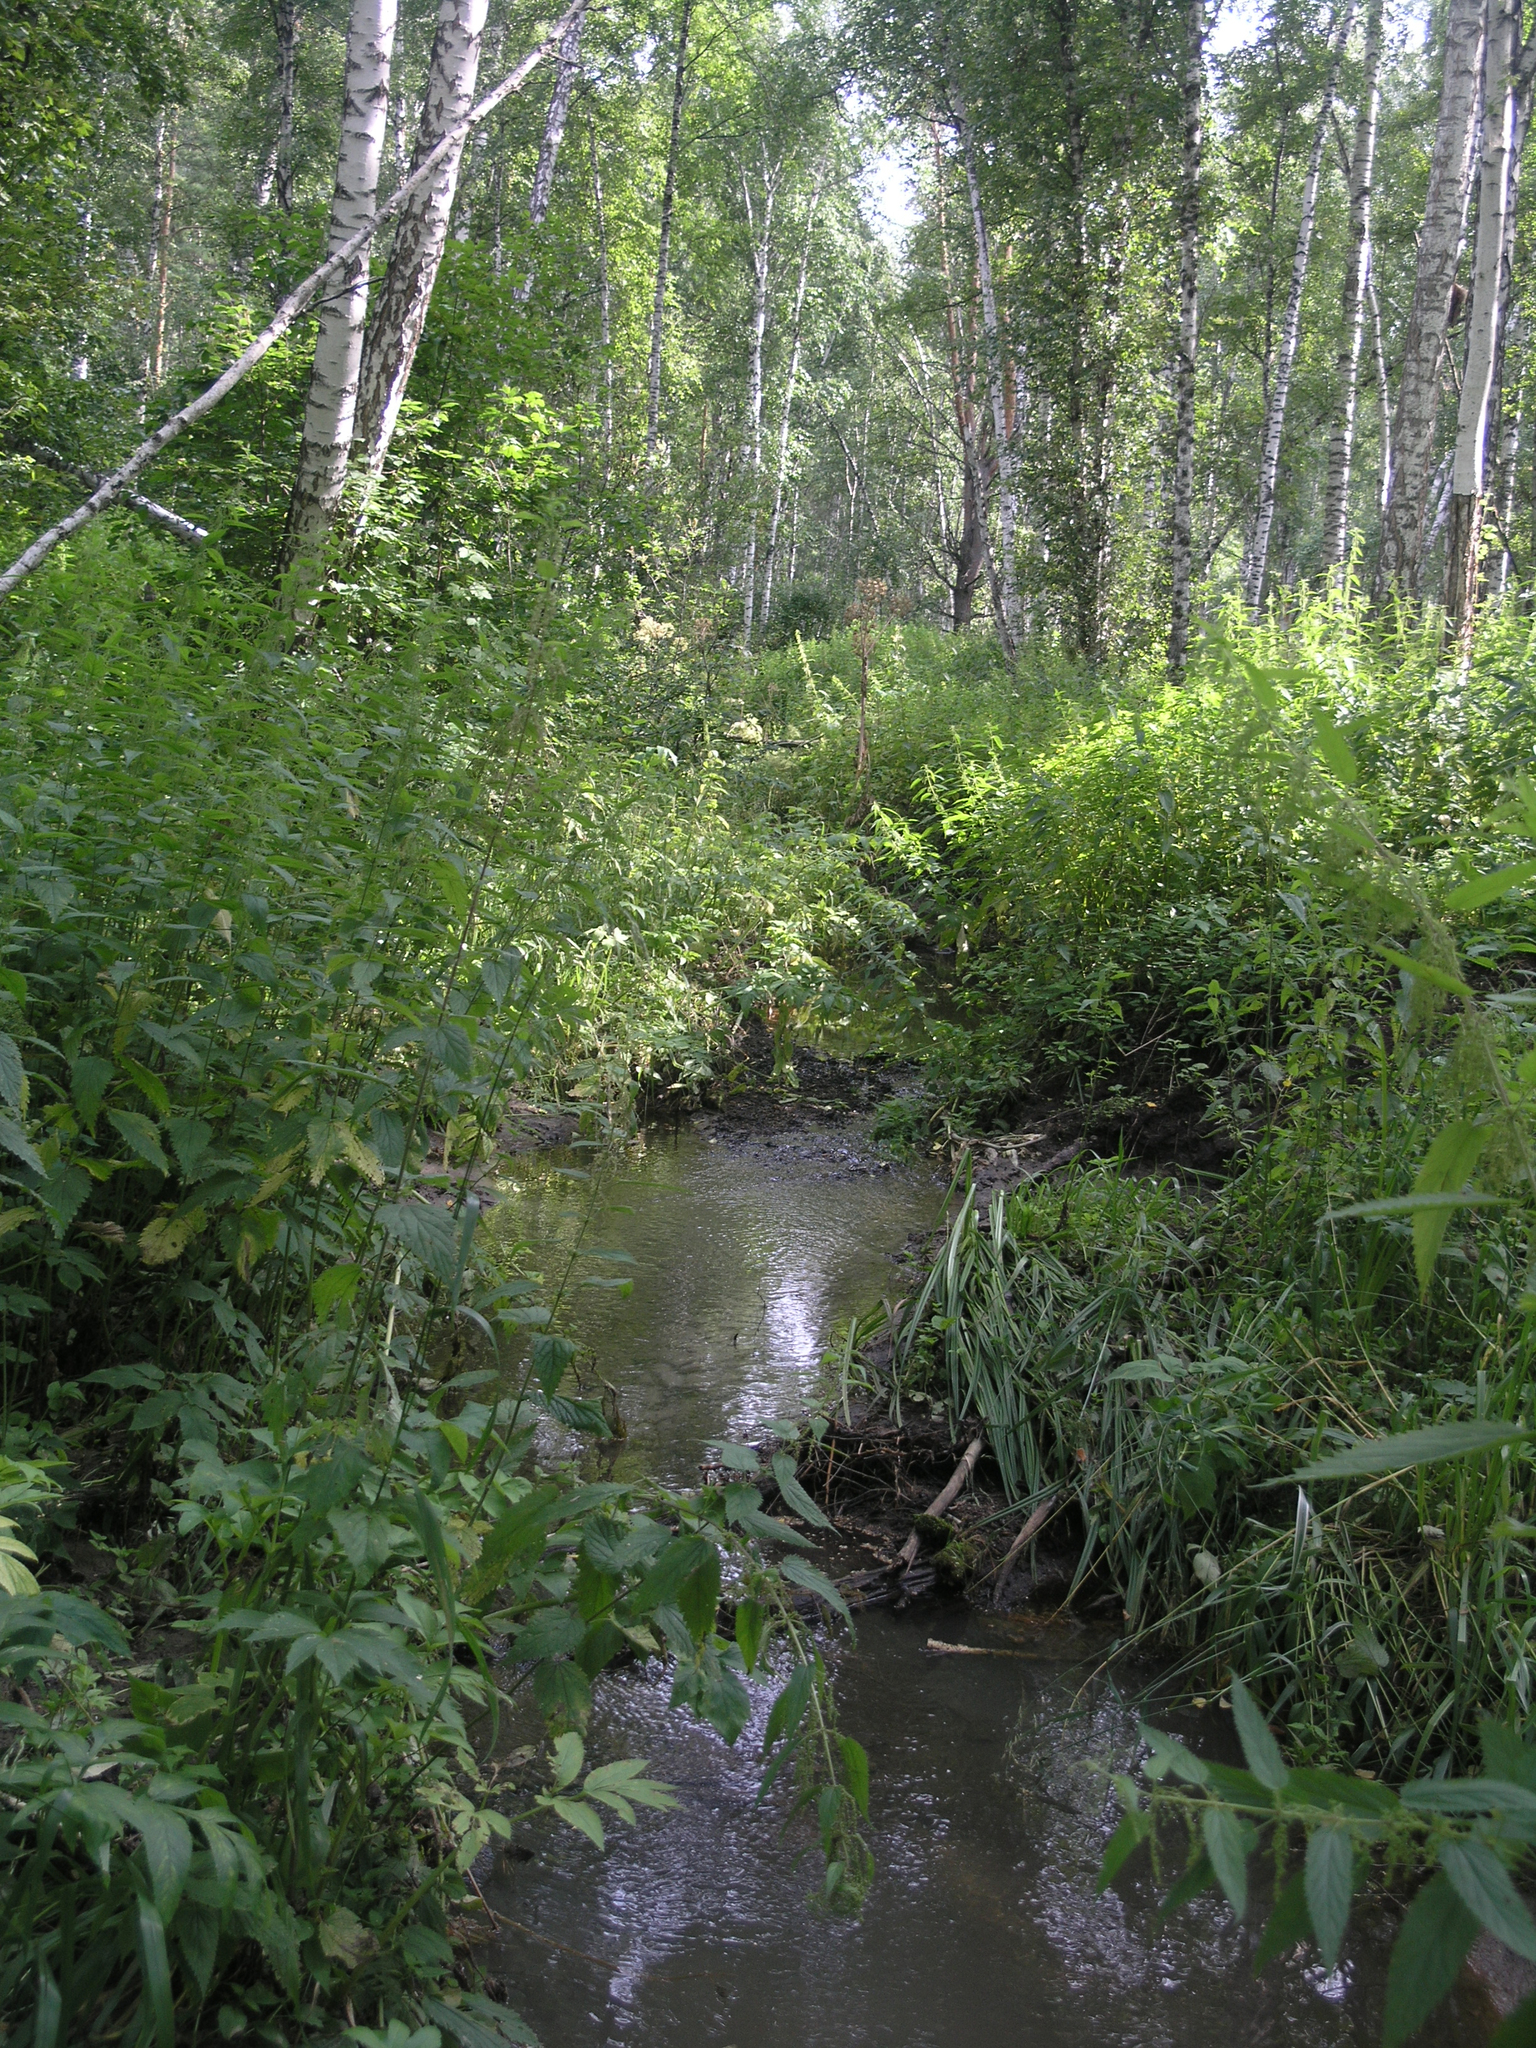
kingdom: Plantae
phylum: Tracheophyta
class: Magnoliopsida
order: Fagales
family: Betulaceae
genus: Betula
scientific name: Betula pubescens
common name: Downy birch
